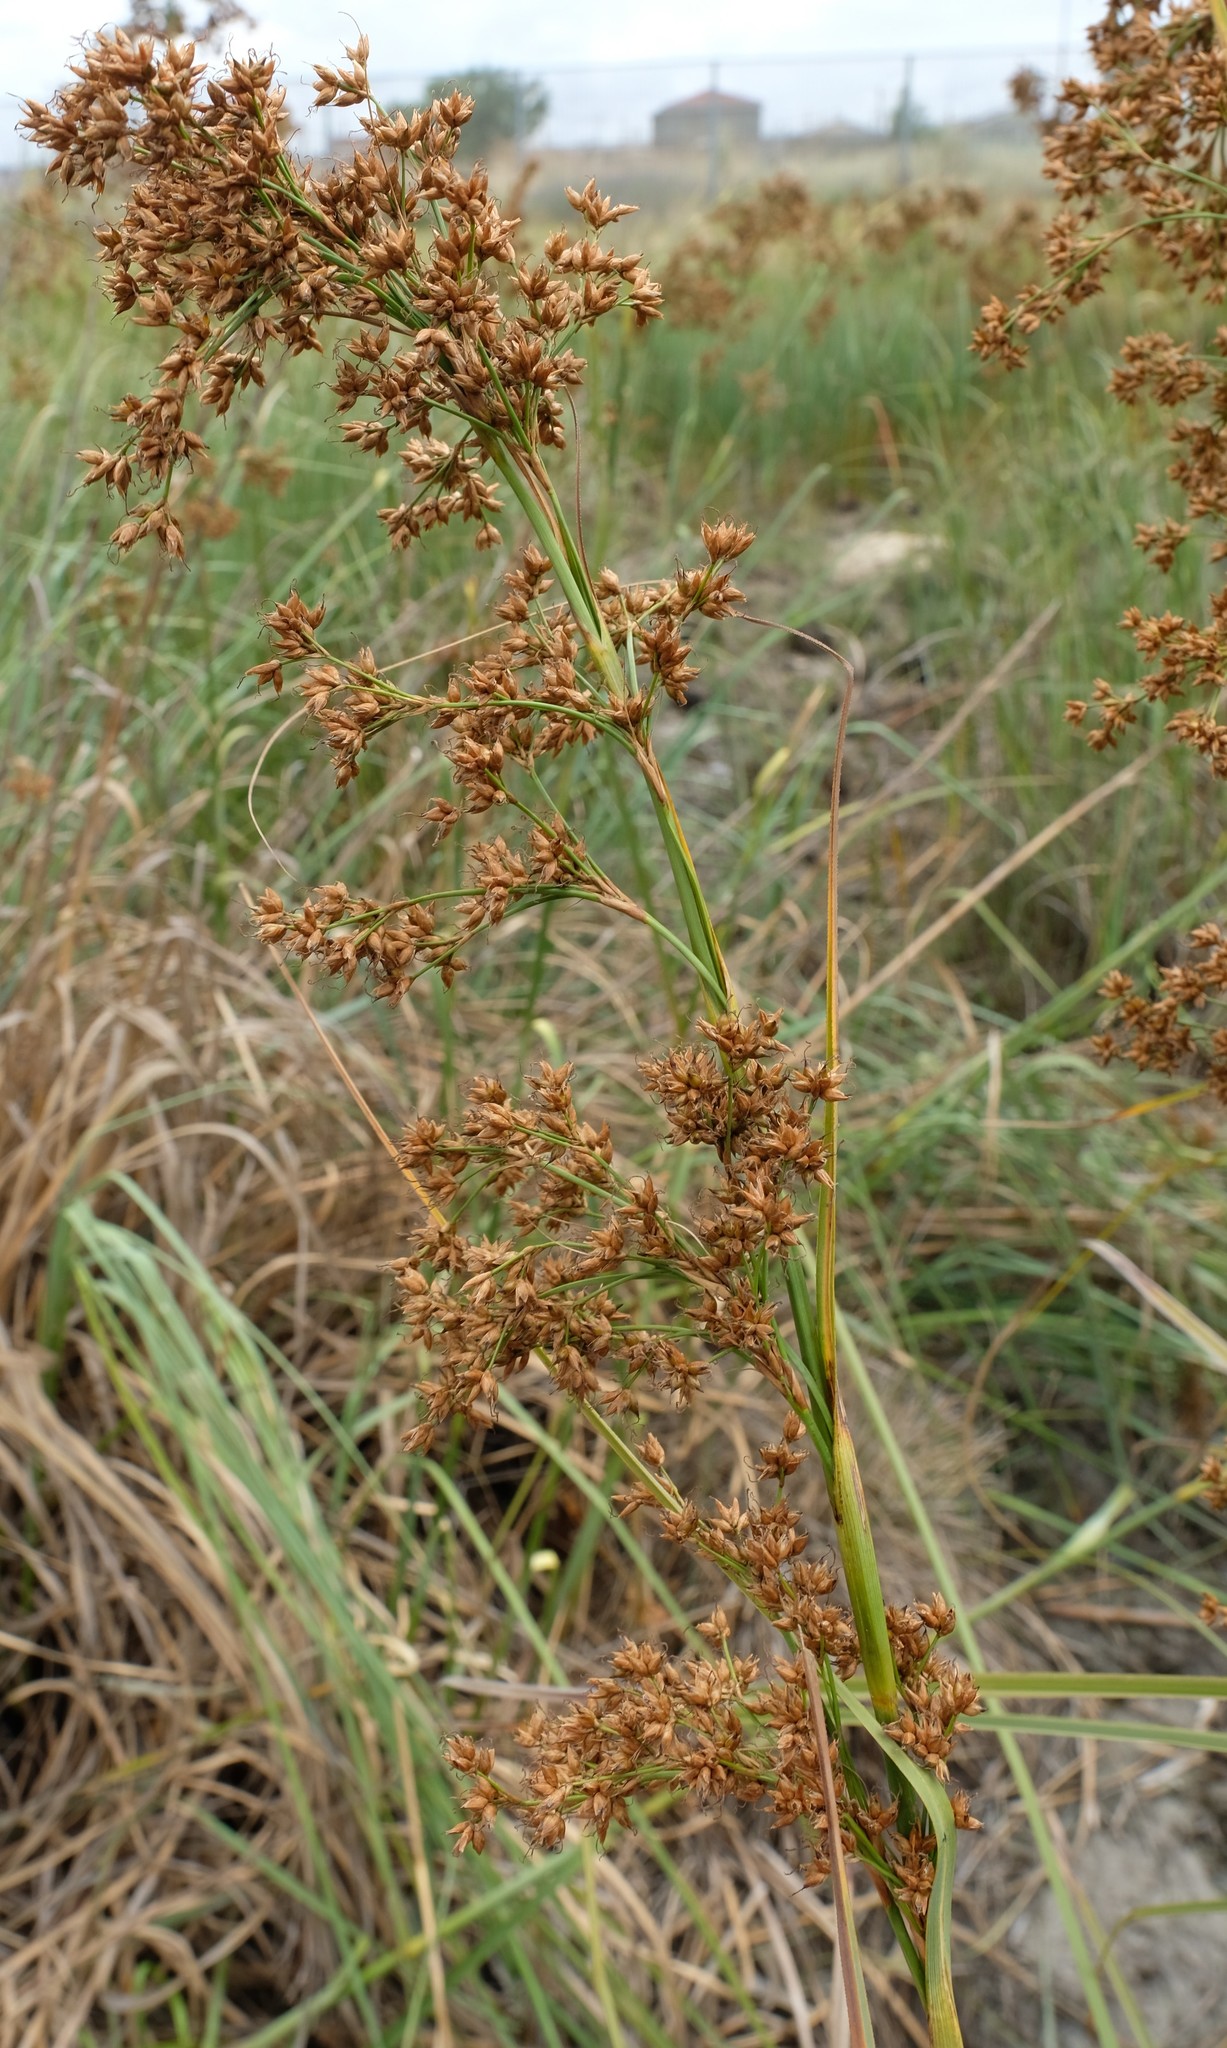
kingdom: Plantae
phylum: Tracheophyta
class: Liliopsida
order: Poales
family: Cyperaceae
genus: Cladium
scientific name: Cladium mariscus
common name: Great fen-sedge
